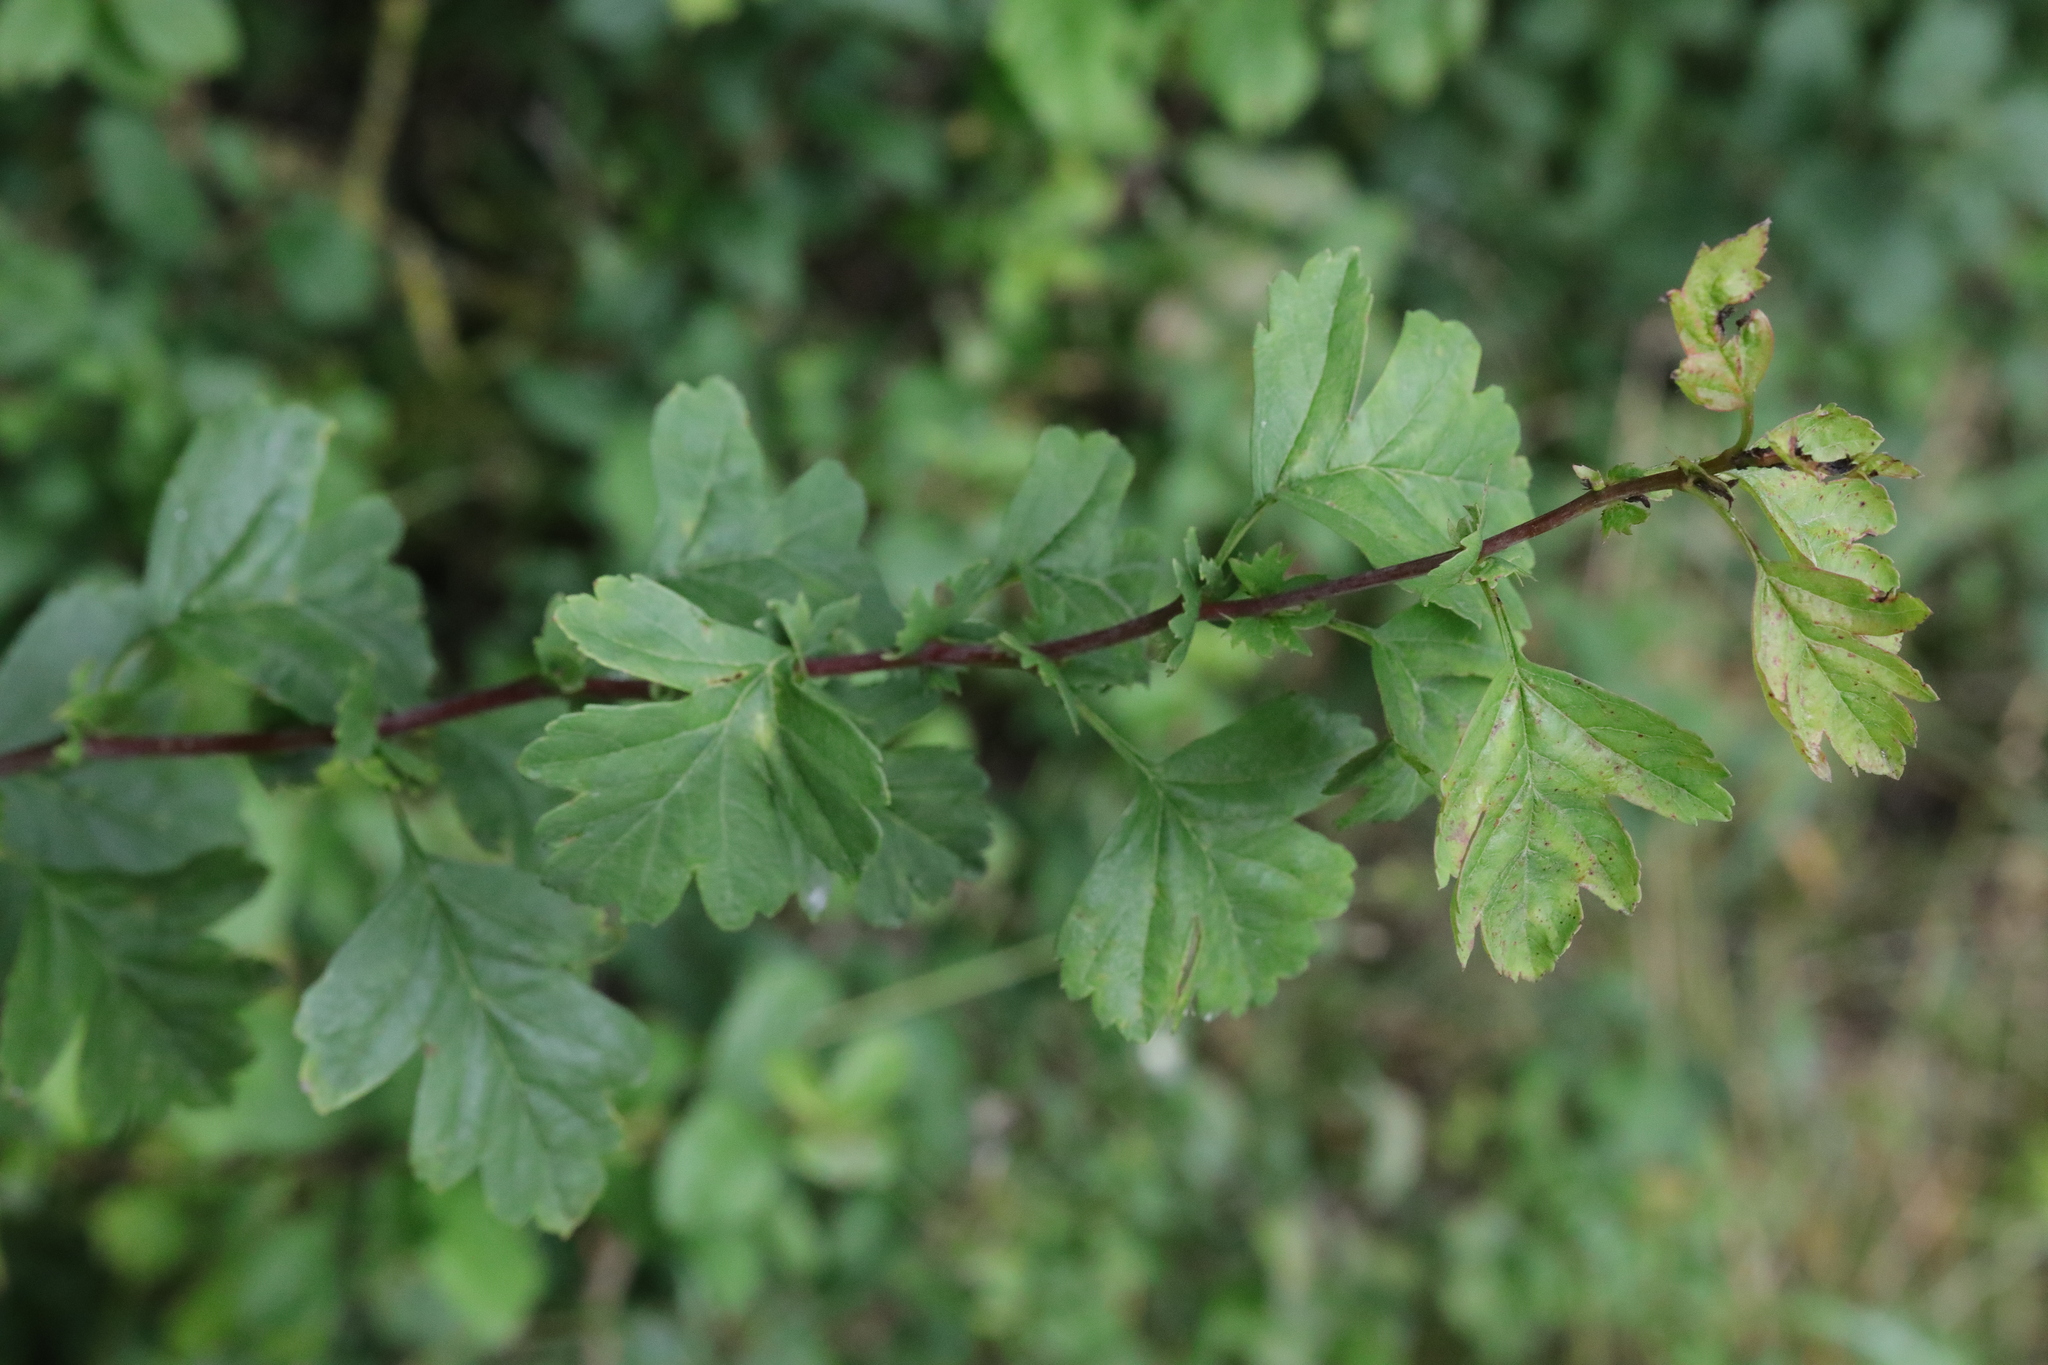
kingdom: Plantae
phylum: Tracheophyta
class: Magnoliopsida
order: Rosales
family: Rosaceae
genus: Crataegus
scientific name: Crataegus monogyna
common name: Hawthorn
